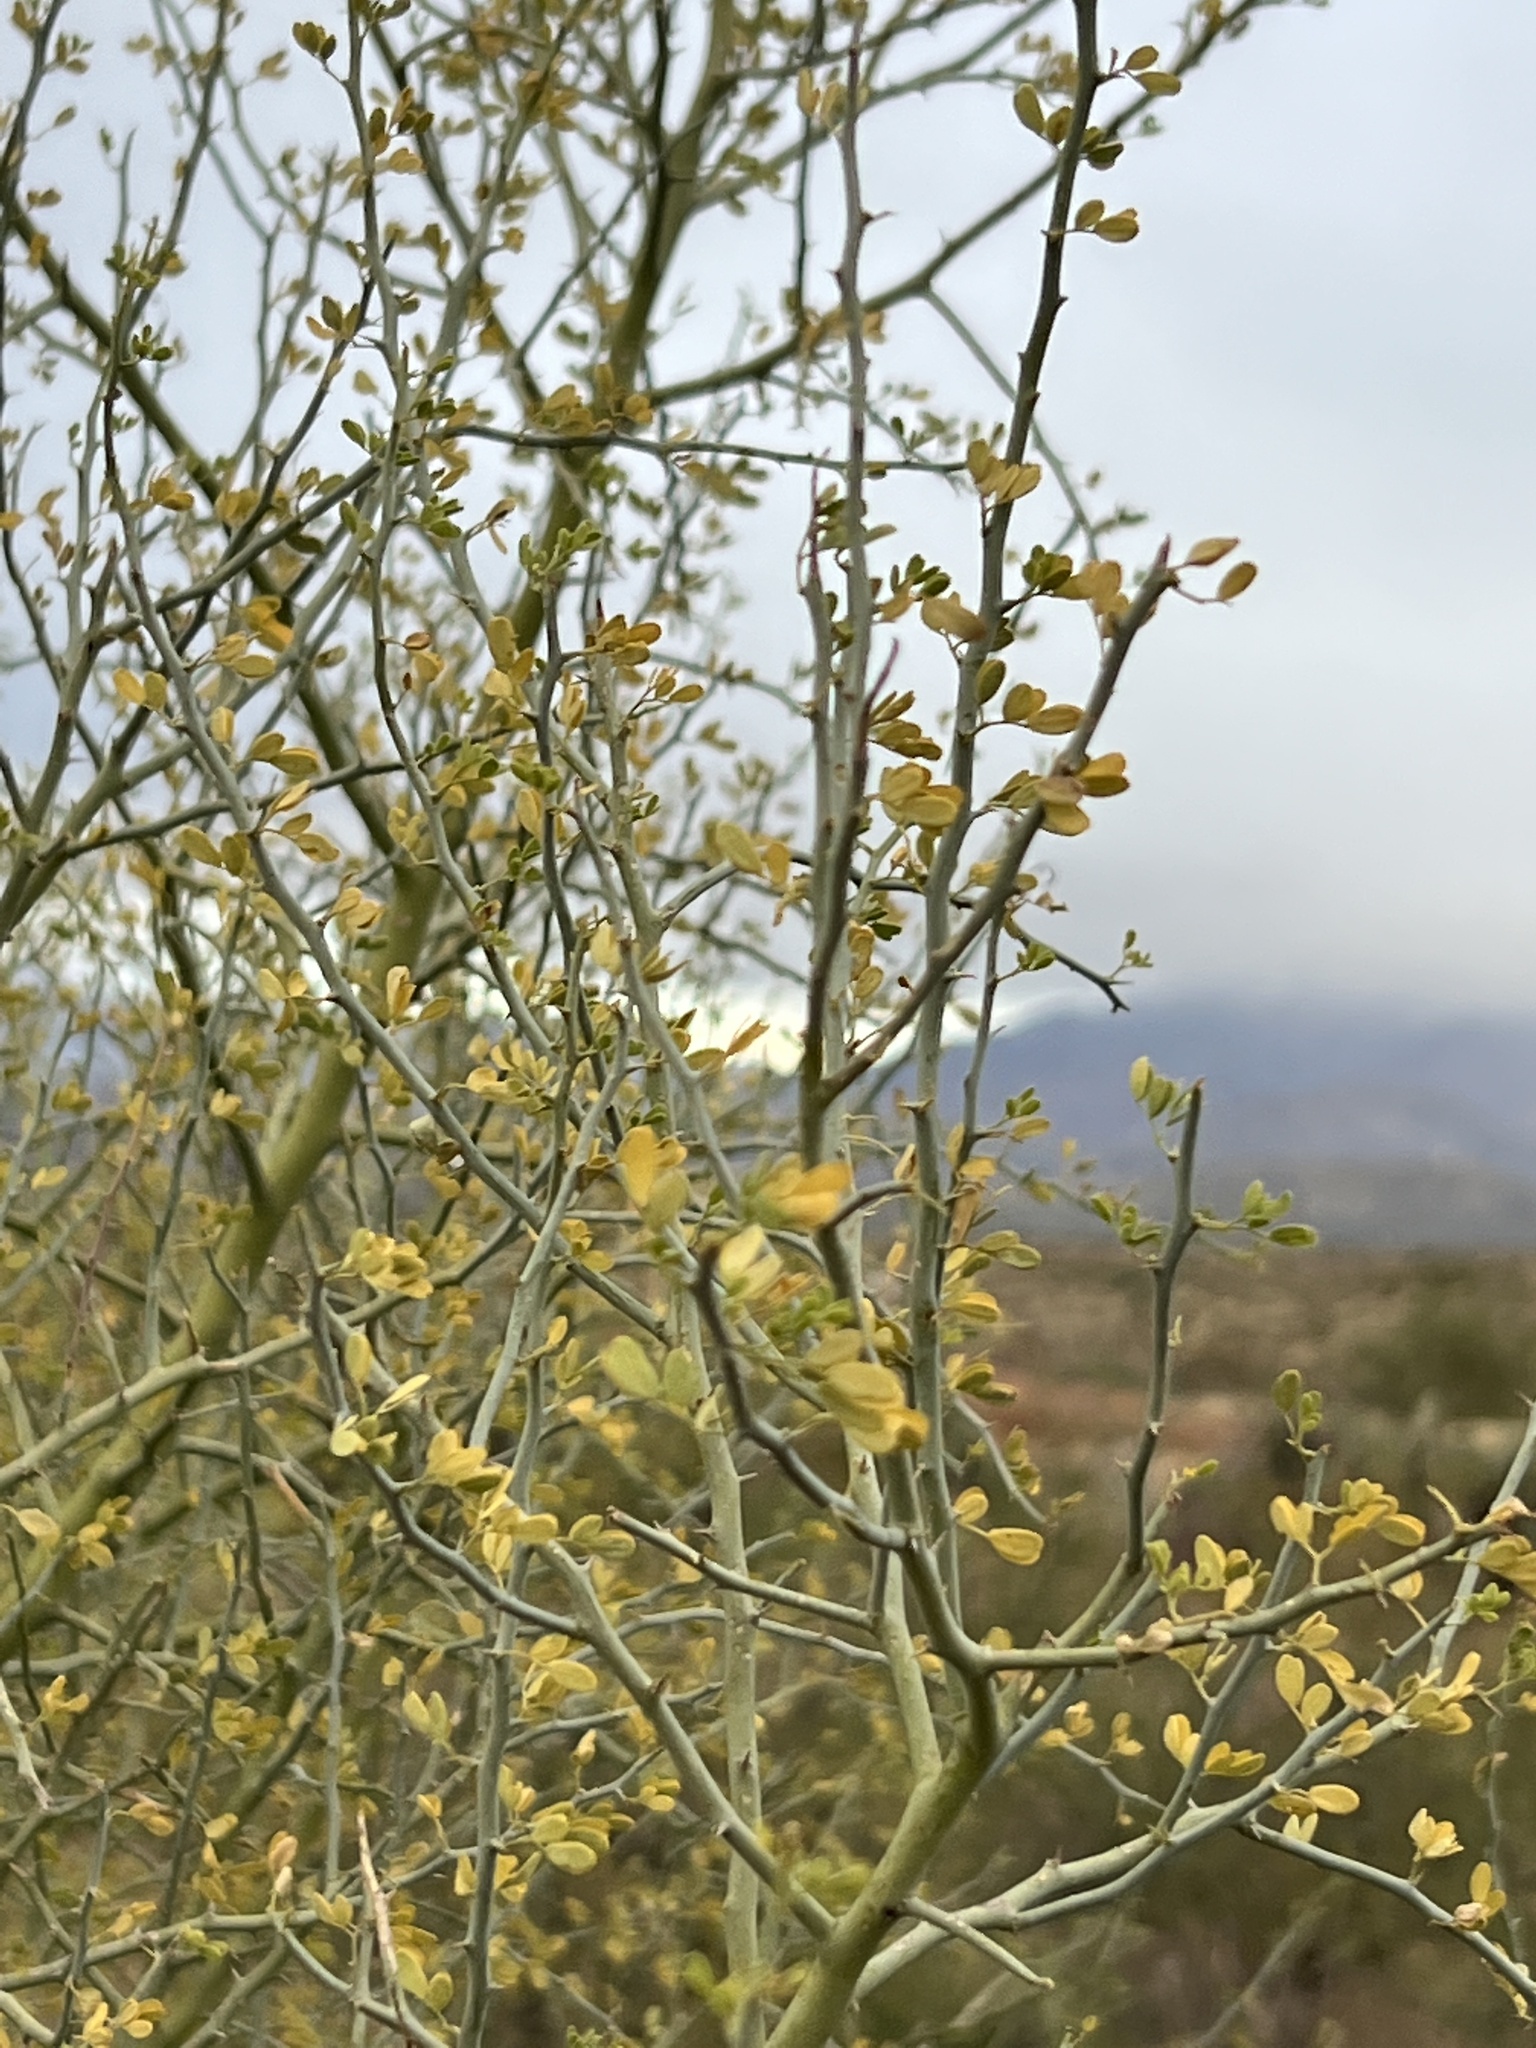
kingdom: Plantae
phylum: Tracheophyta
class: Magnoliopsida
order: Fabales
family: Fabaceae
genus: Parkinsonia
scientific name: Parkinsonia microphylla
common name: Yellow paloverde
